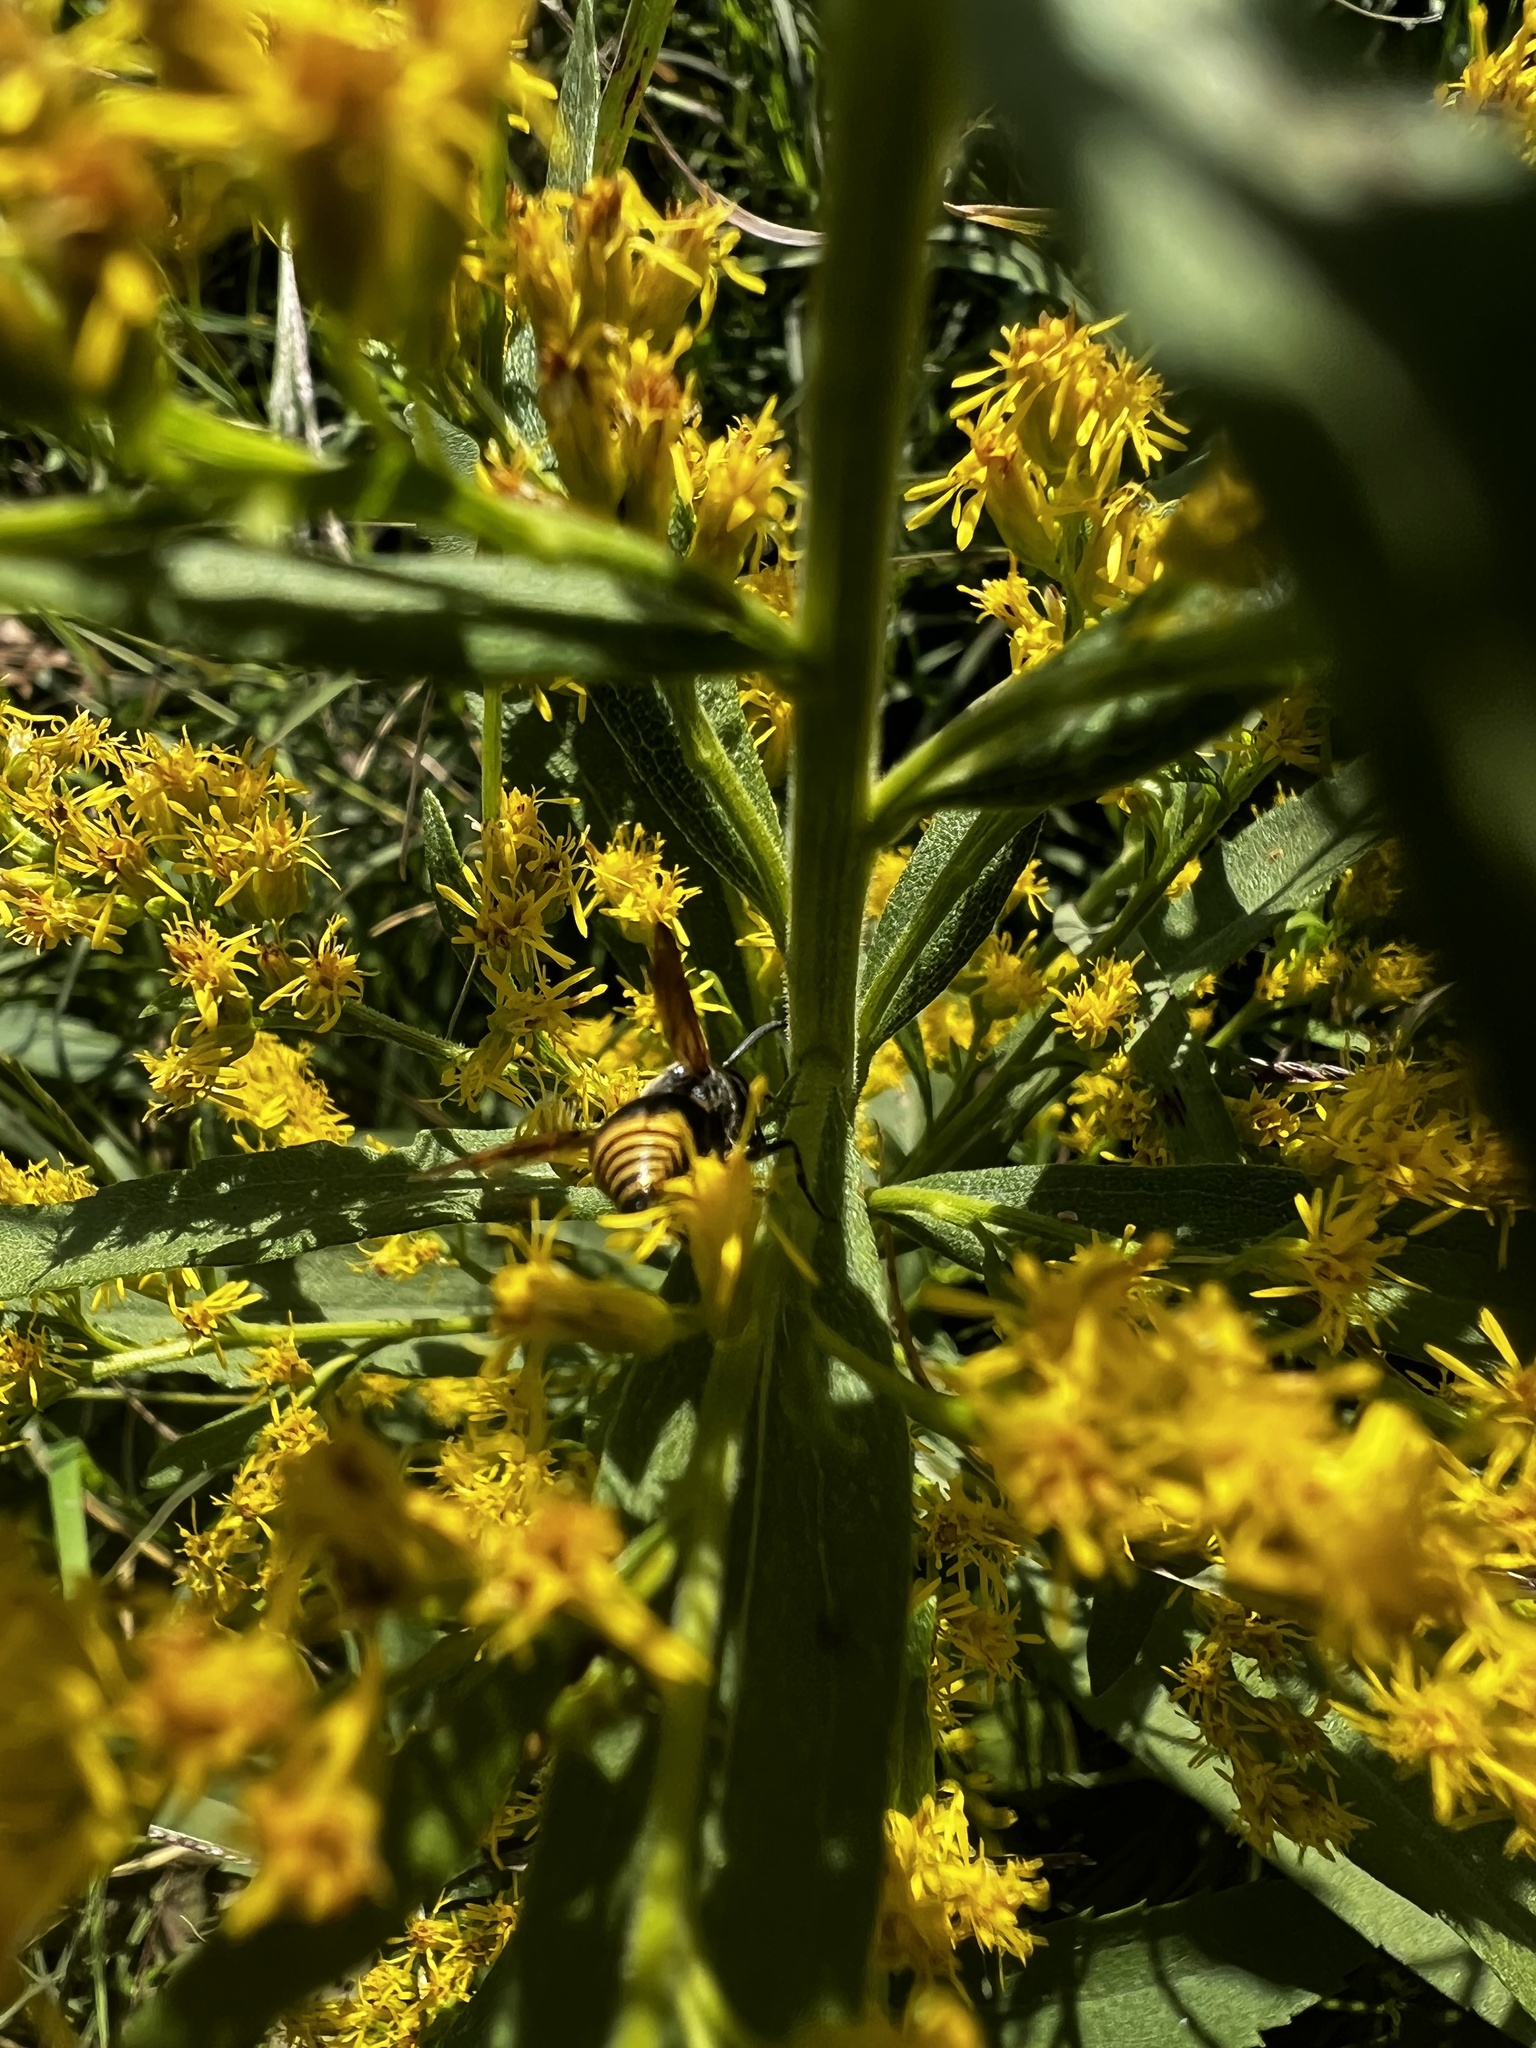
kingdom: Animalia
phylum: Arthropoda
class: Insecta
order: Hymenoptera
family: Eumenidae
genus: Pachodynerus
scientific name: Pachodynerus
